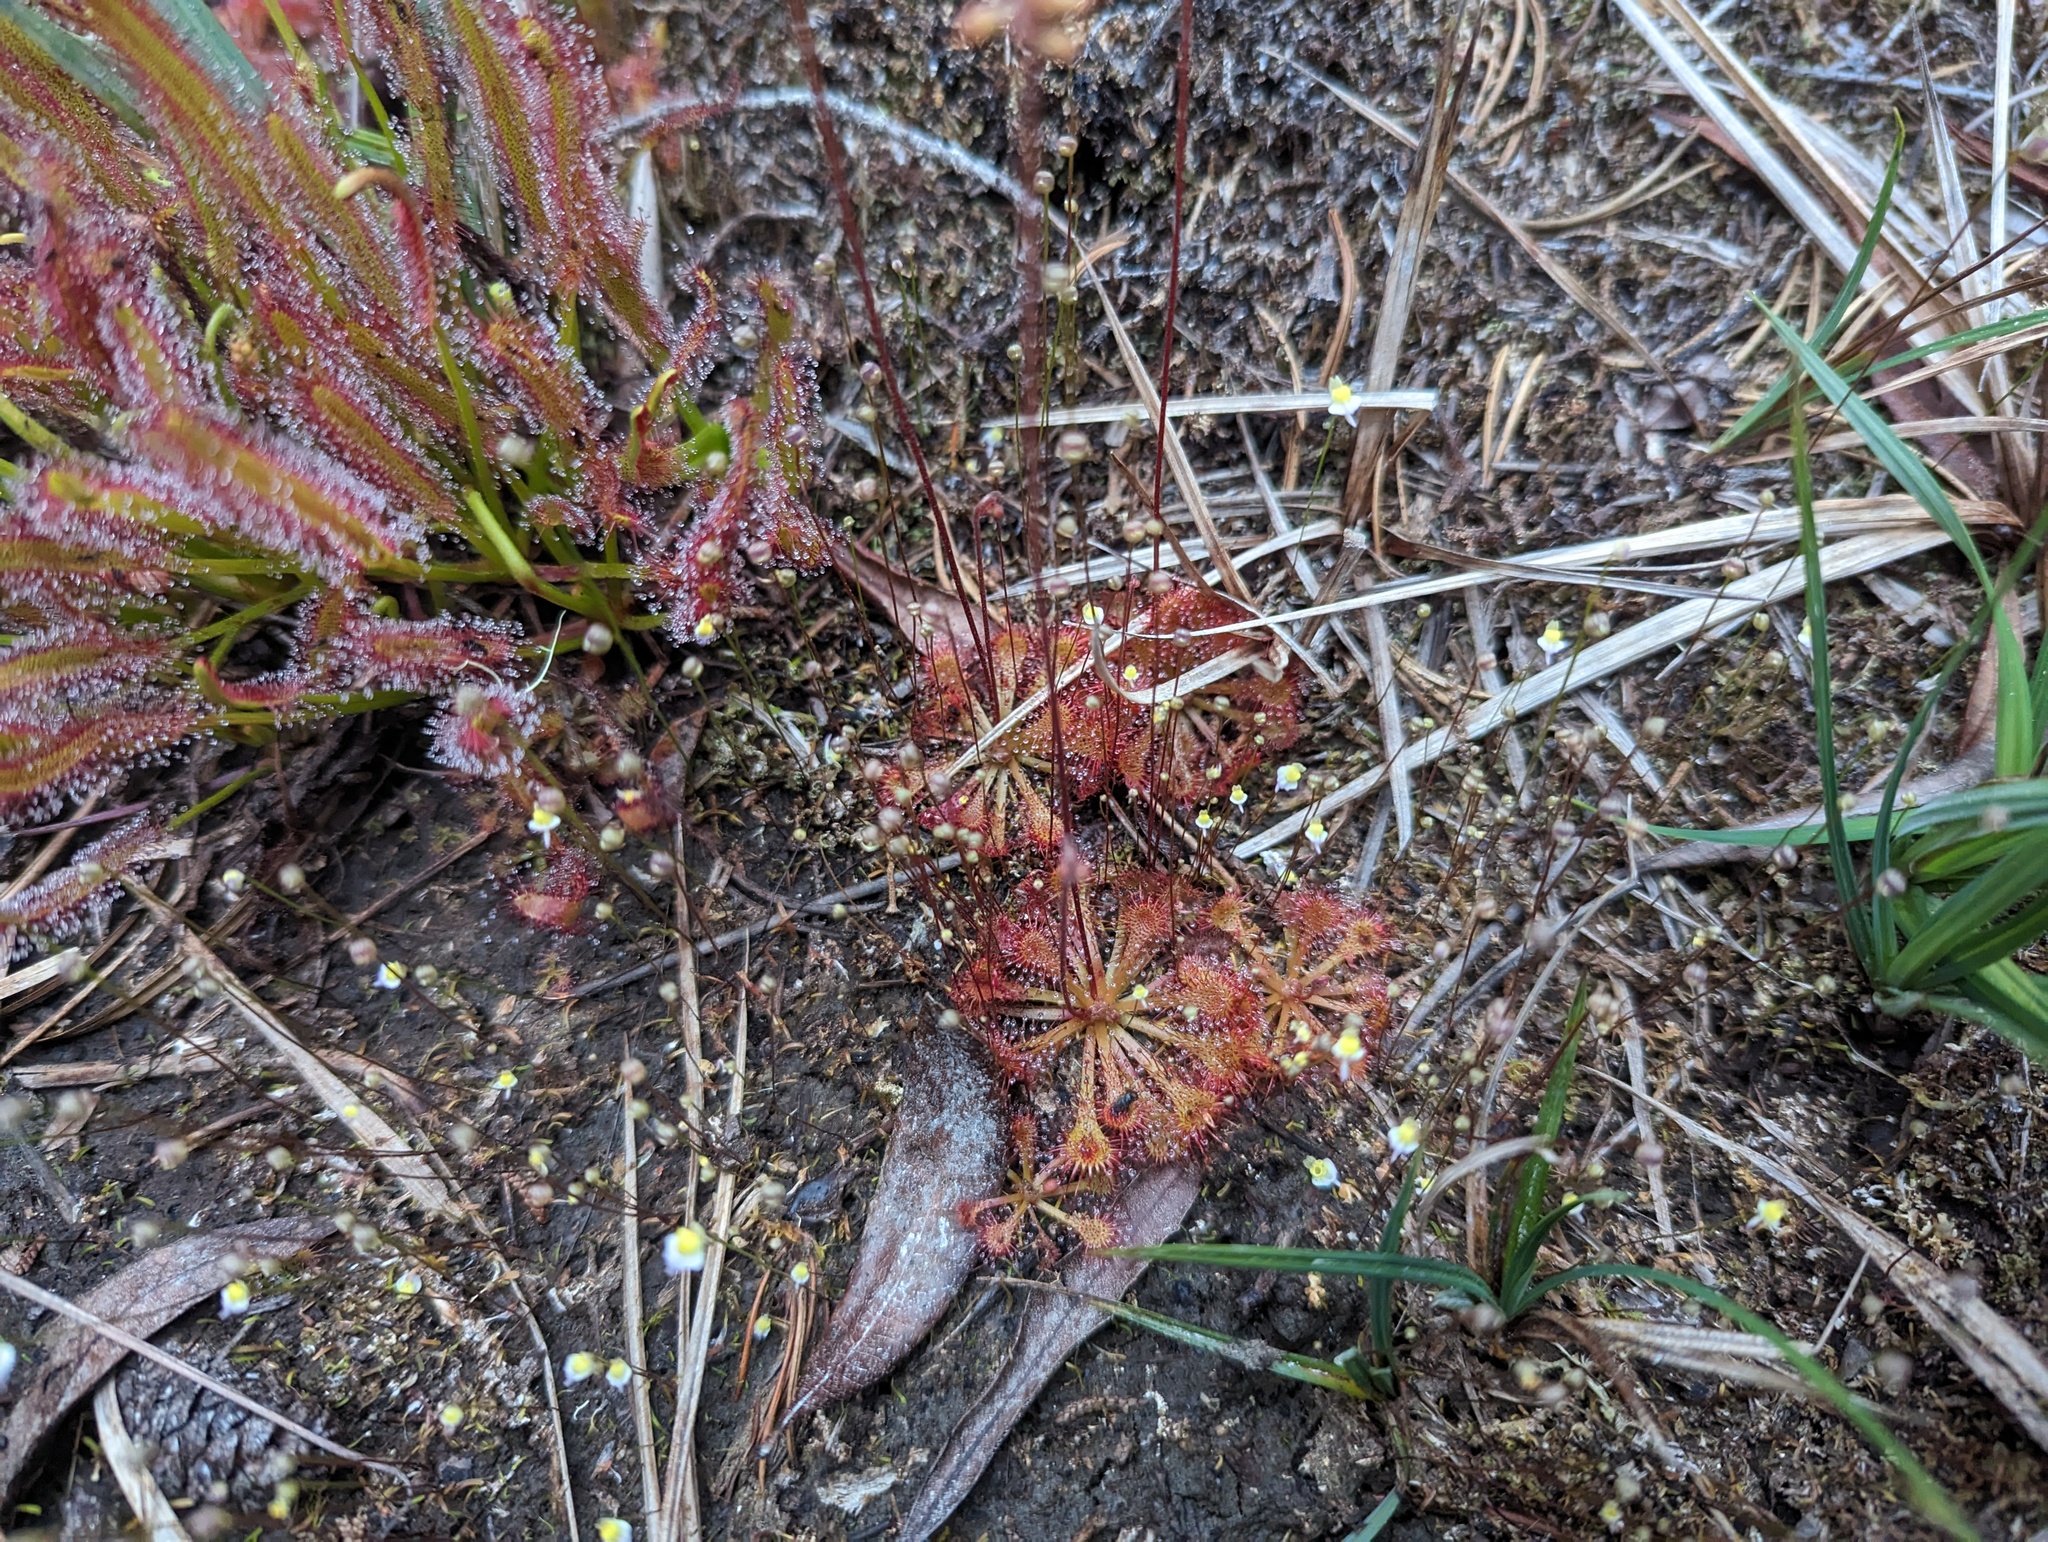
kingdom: Plantae
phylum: Tracheophyta
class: Magnoliopsida
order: Caryophyllales
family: Droseraceae
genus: Drosera
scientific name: Drosera spatulata
